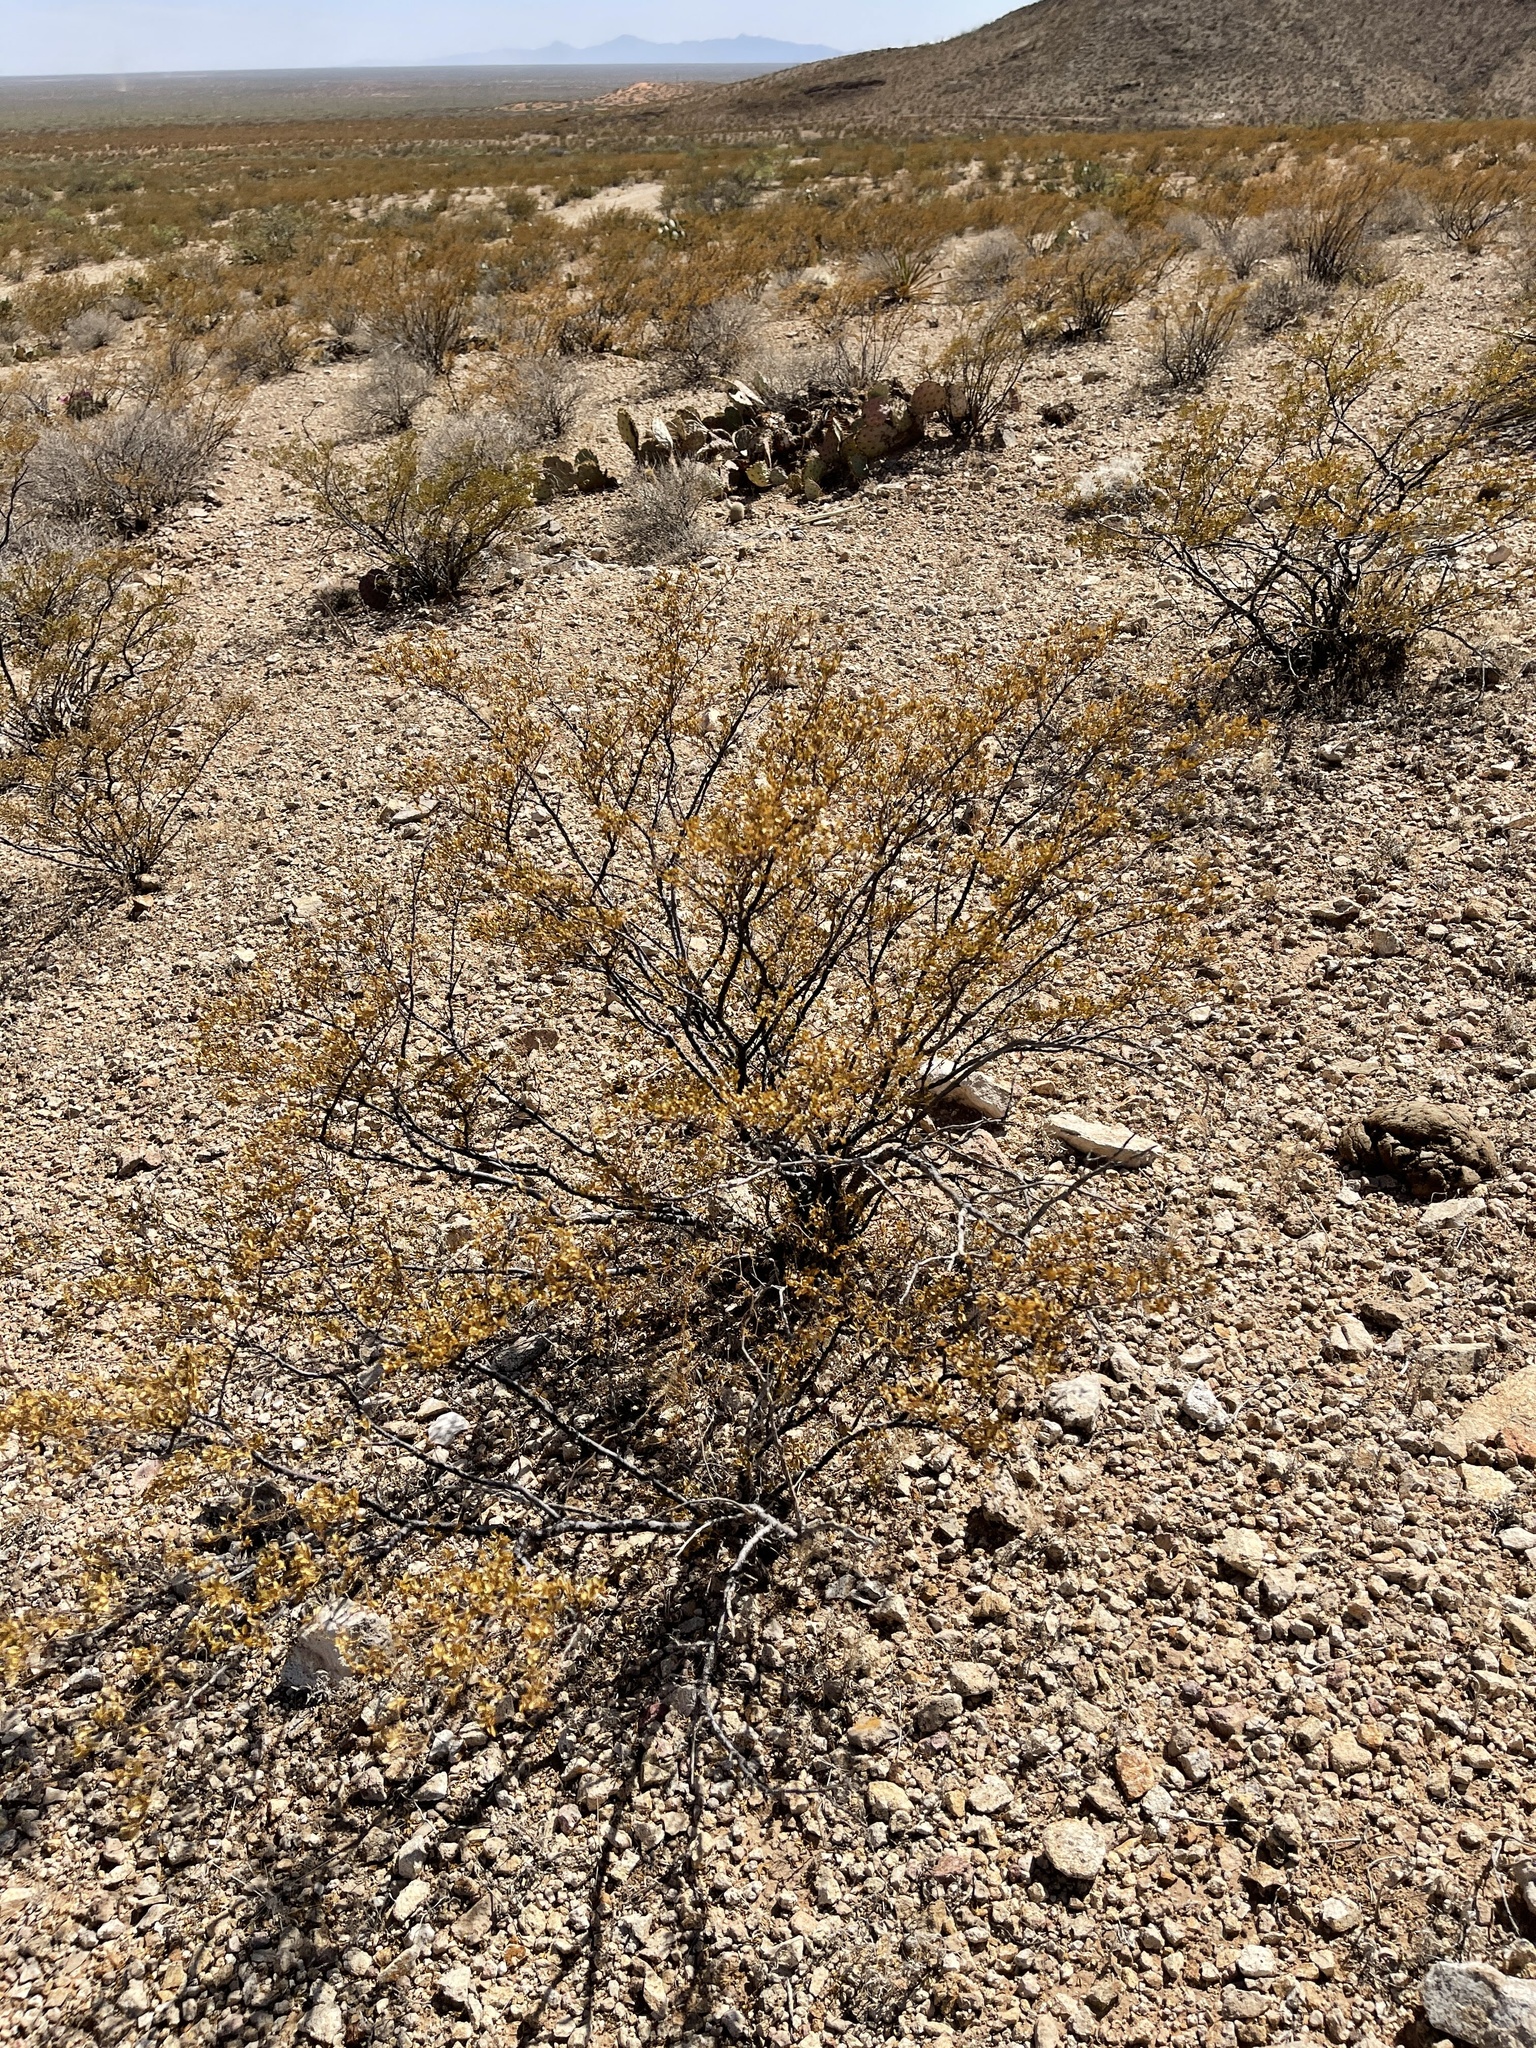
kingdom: Plantae
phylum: Tracheophyta
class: Magnoliopsida
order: Zygophyllales
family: Zygophyllaceae
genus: Larrea
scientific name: Larrea tridentata
